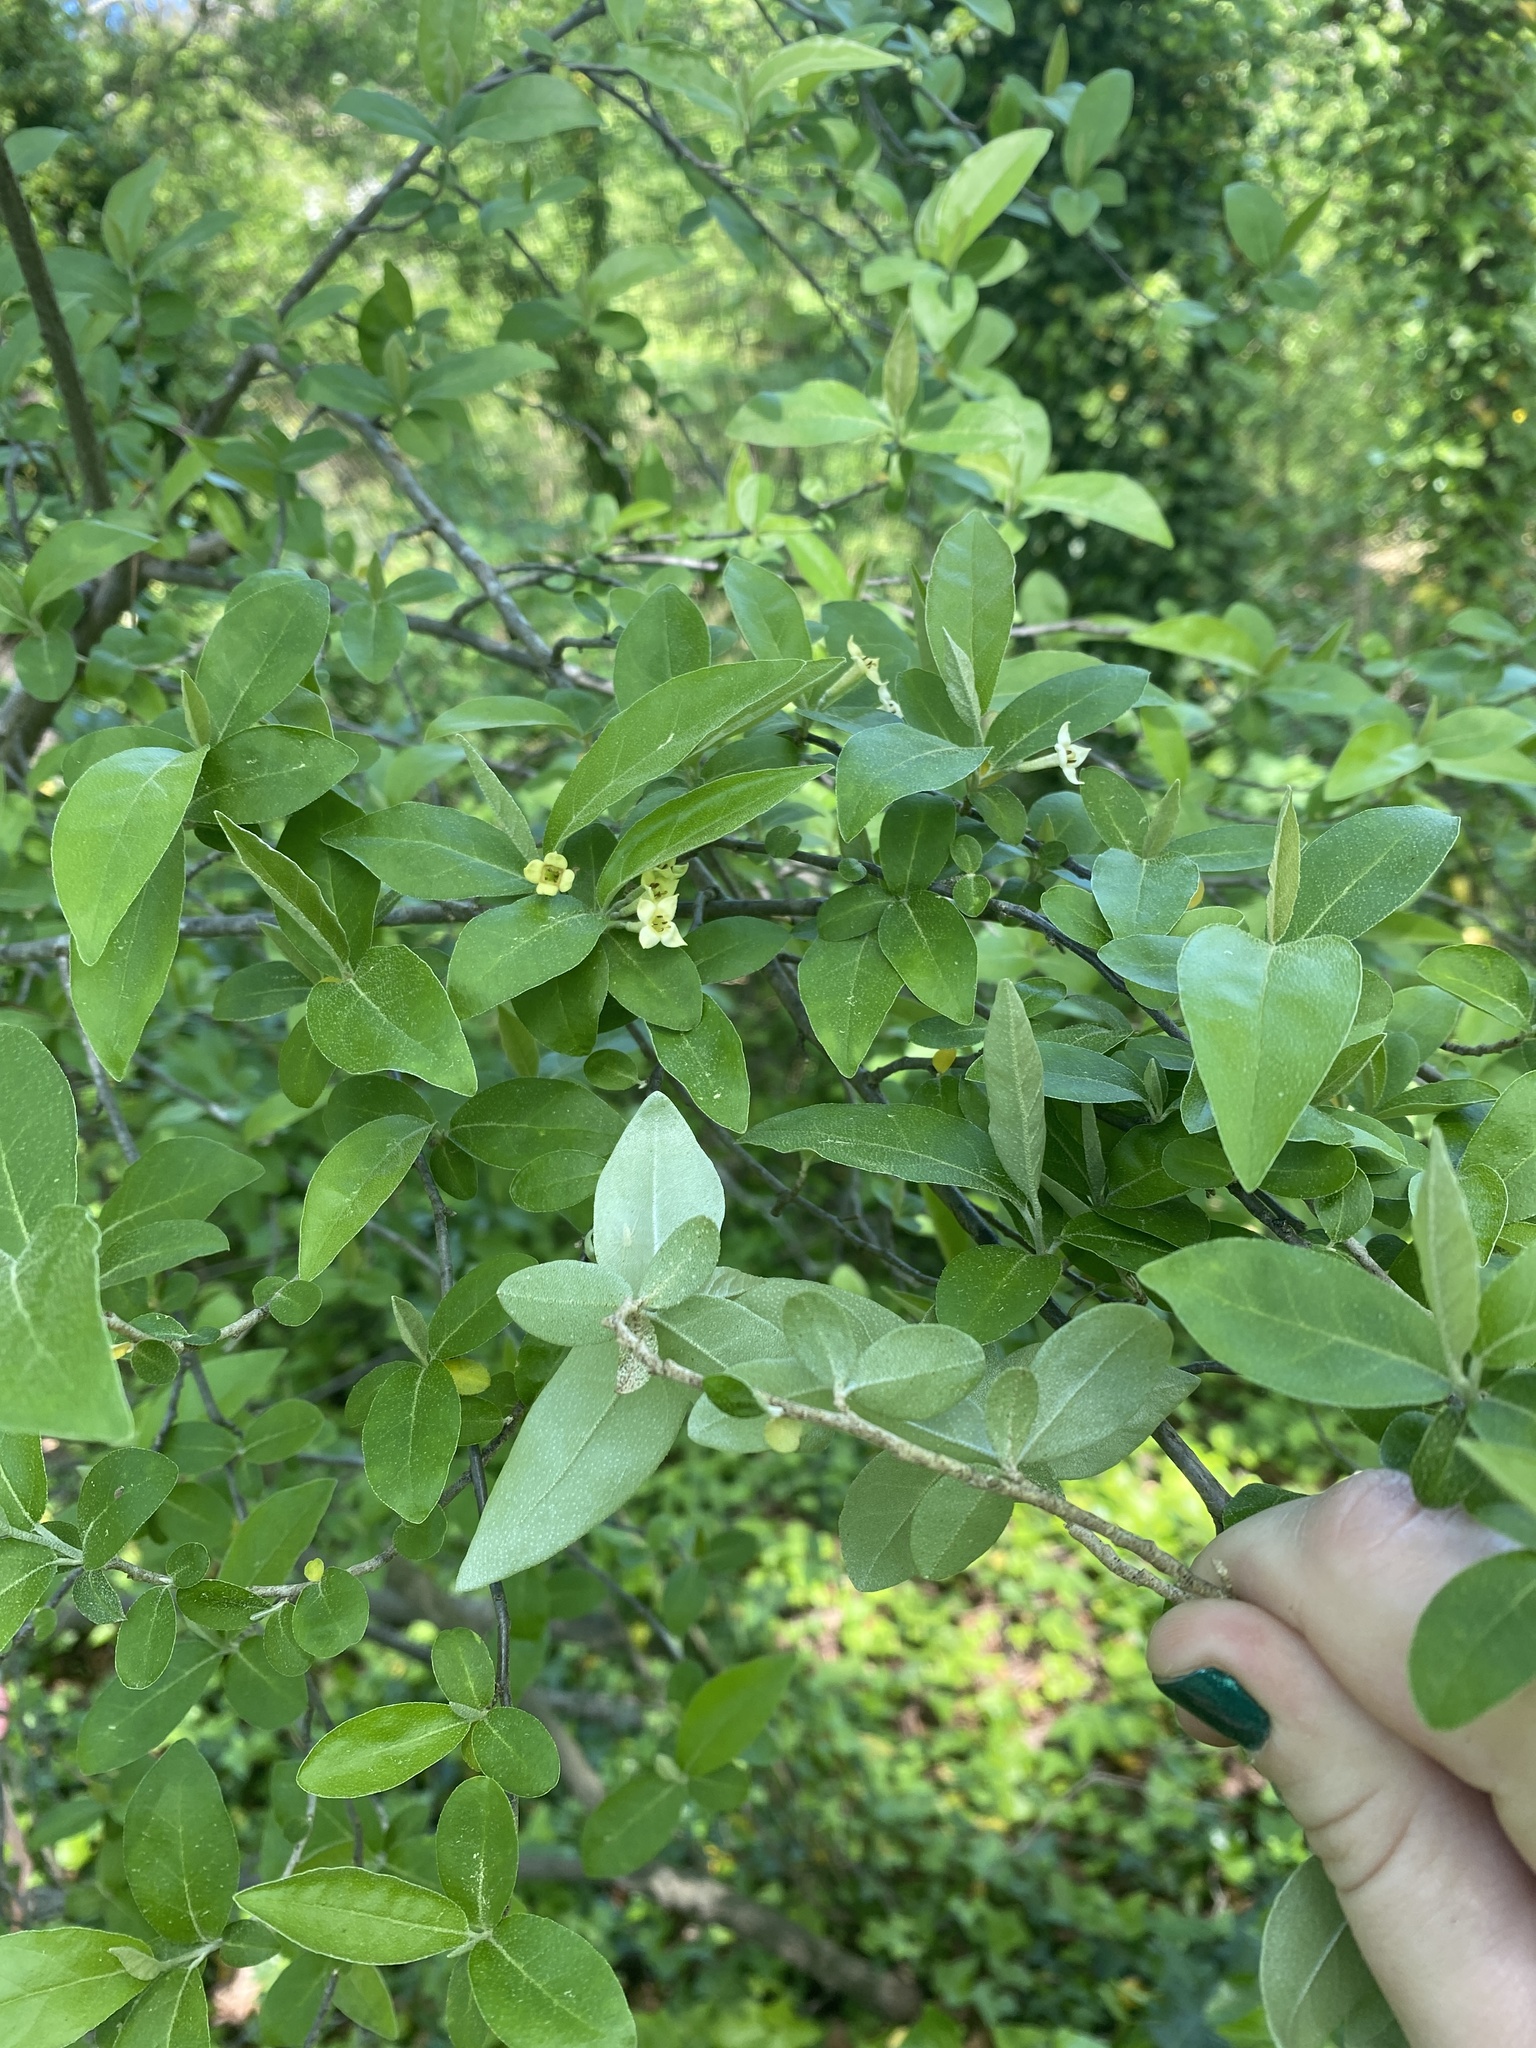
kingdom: Plantae
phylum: Tracheophyta
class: Magnoliopsida
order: Rosales
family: Elaeagnaceae
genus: Elaeagnus
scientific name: Elaeagnus umbellata
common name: Autumn olive
